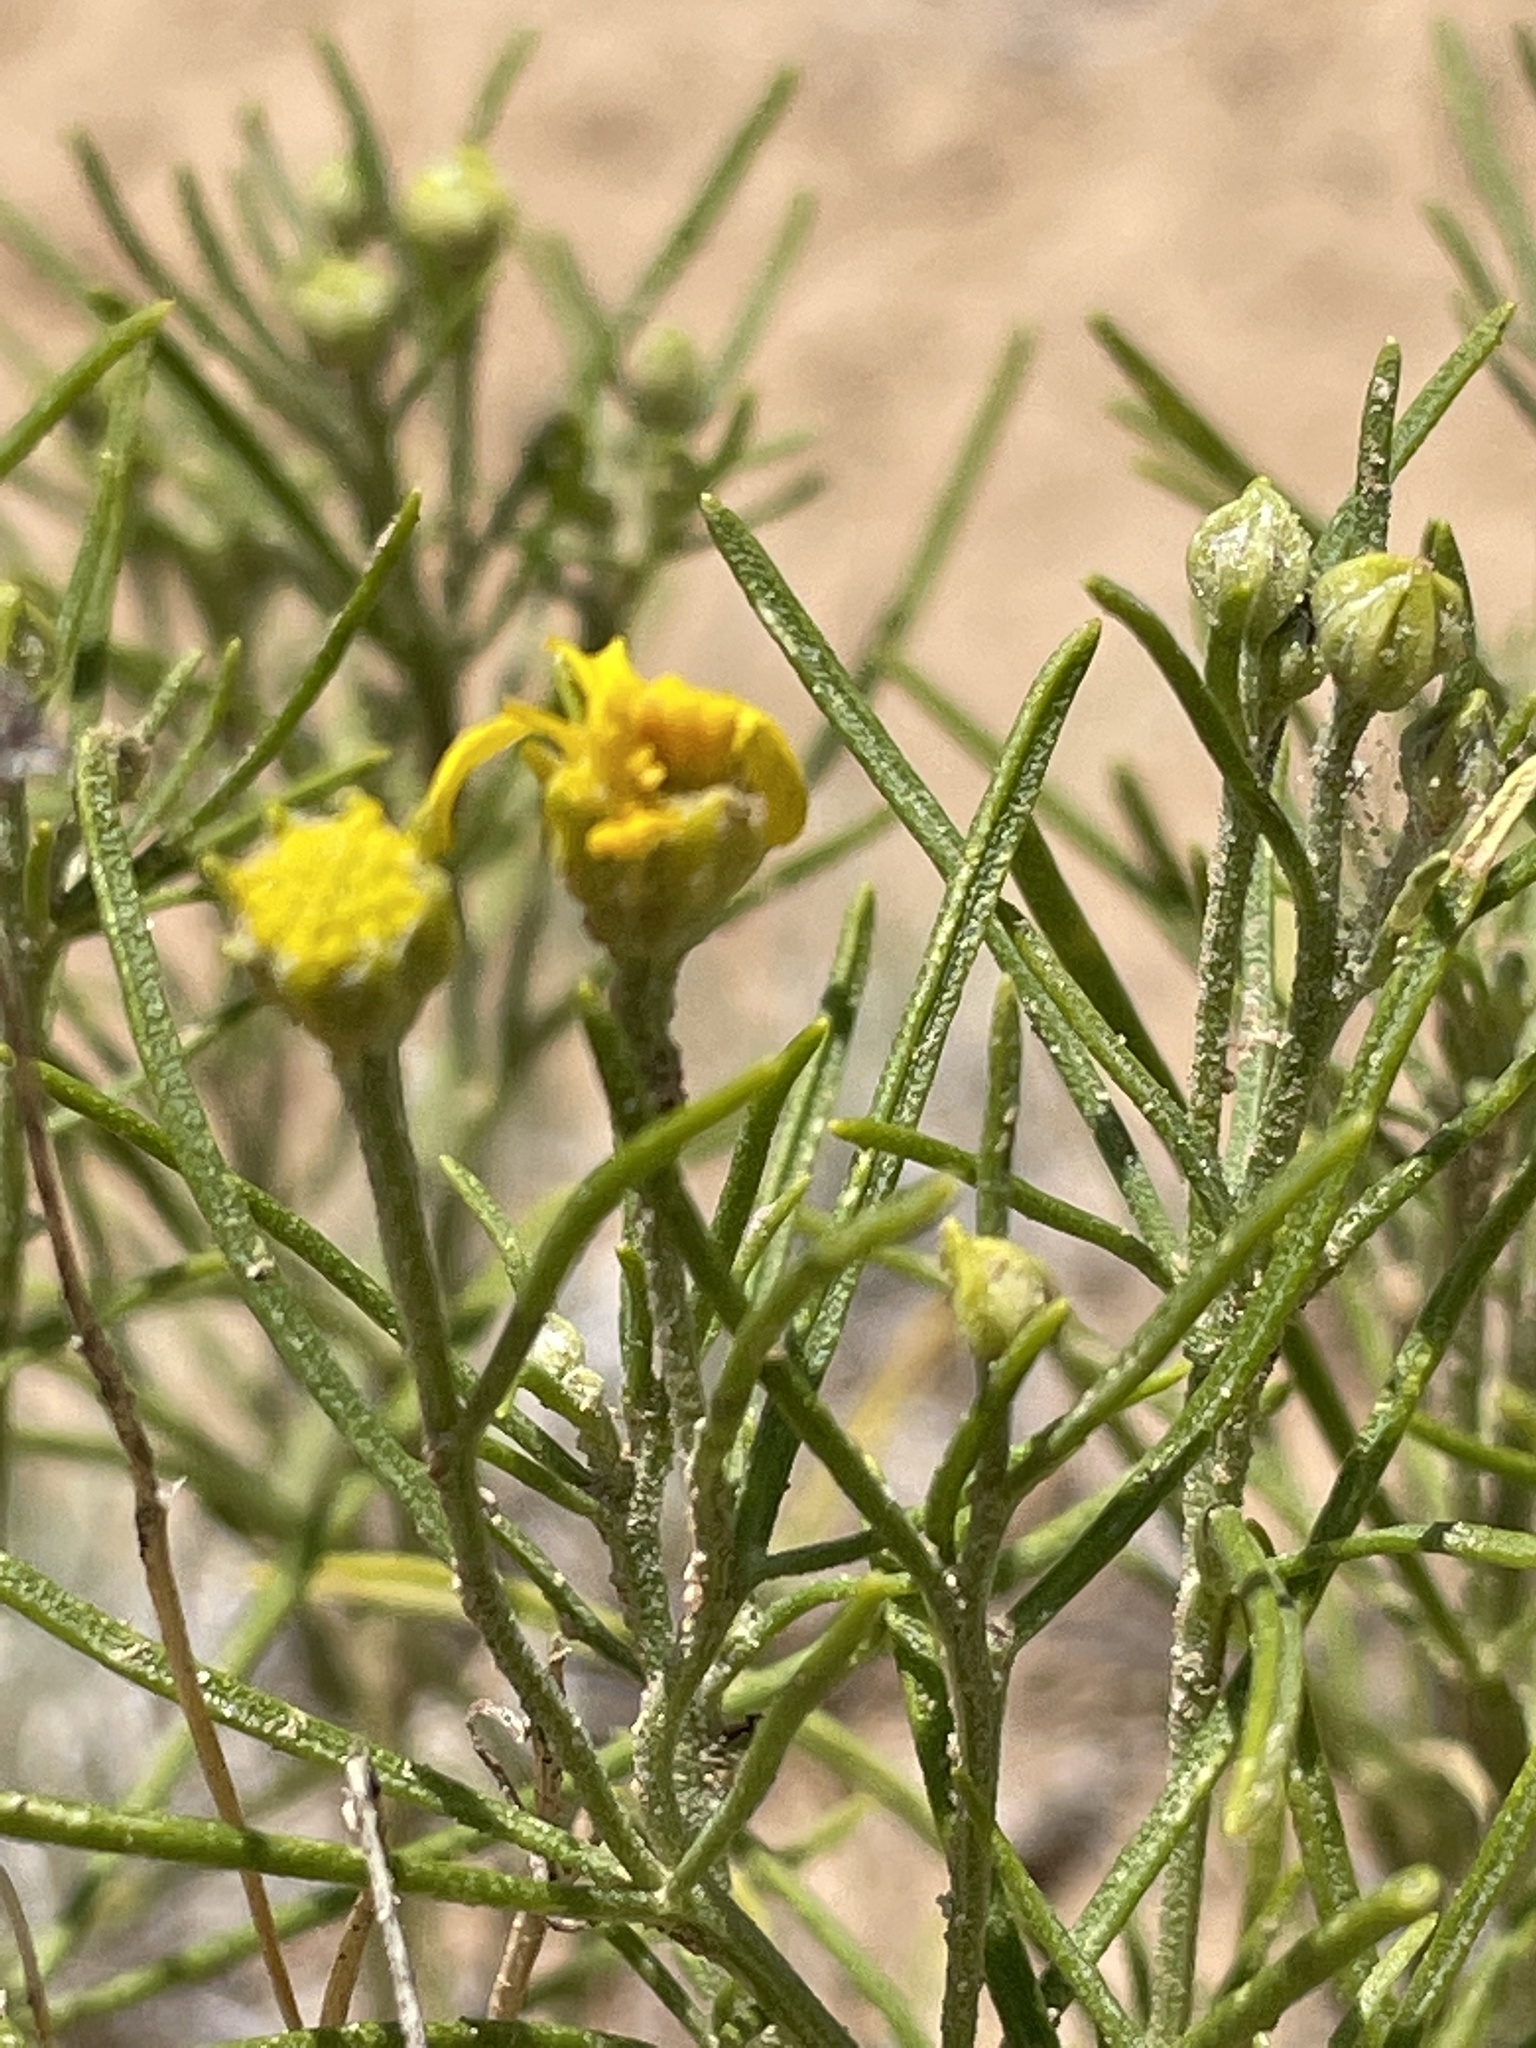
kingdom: Plantae
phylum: Tracheophyta
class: Magnoliopsida
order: Asterales
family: Asteraceae
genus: Hymenoxys
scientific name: Hymenoxys richardsonii
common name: Pingue rubberweed
